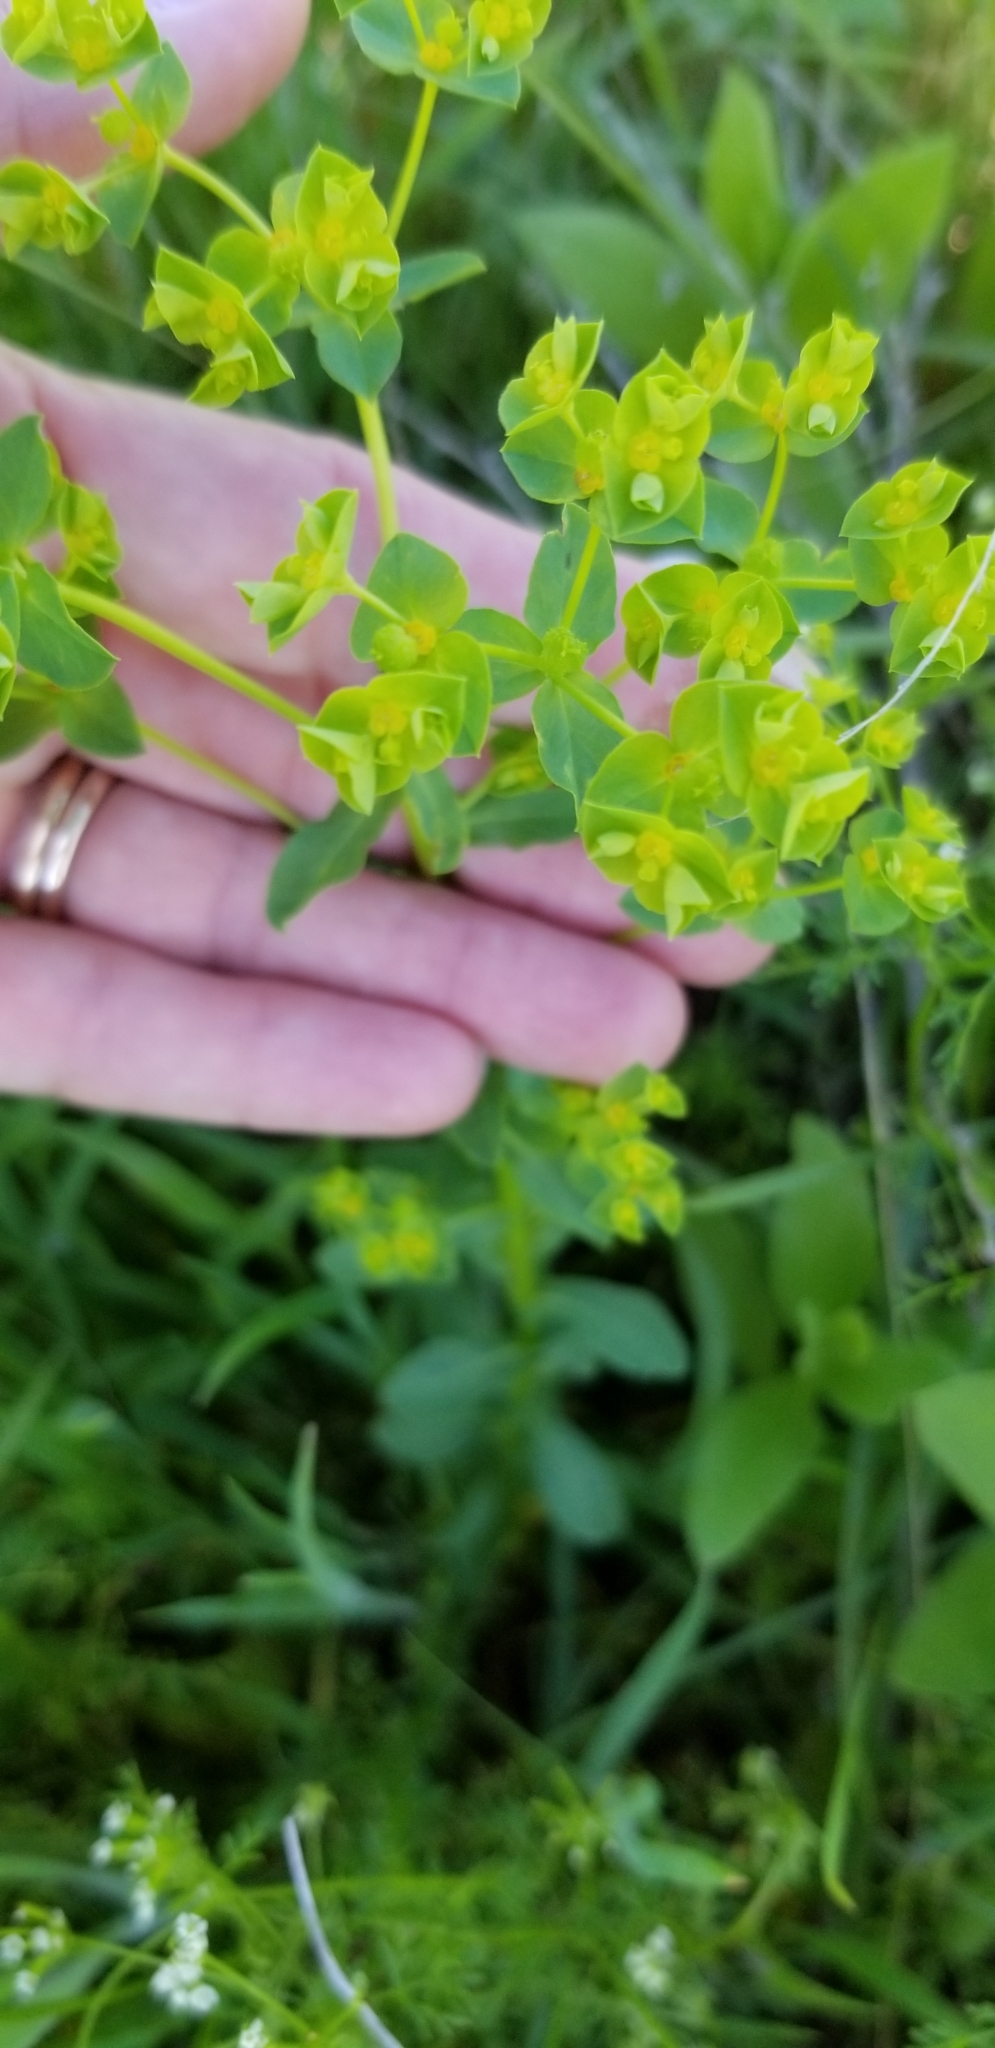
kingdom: Plantae
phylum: Tracheophyta
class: Magnoliopsida
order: Malpighiales
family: Euphorbiaceae
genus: Euphorbia
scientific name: Euphorbia spathulata
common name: Blunt spurge
